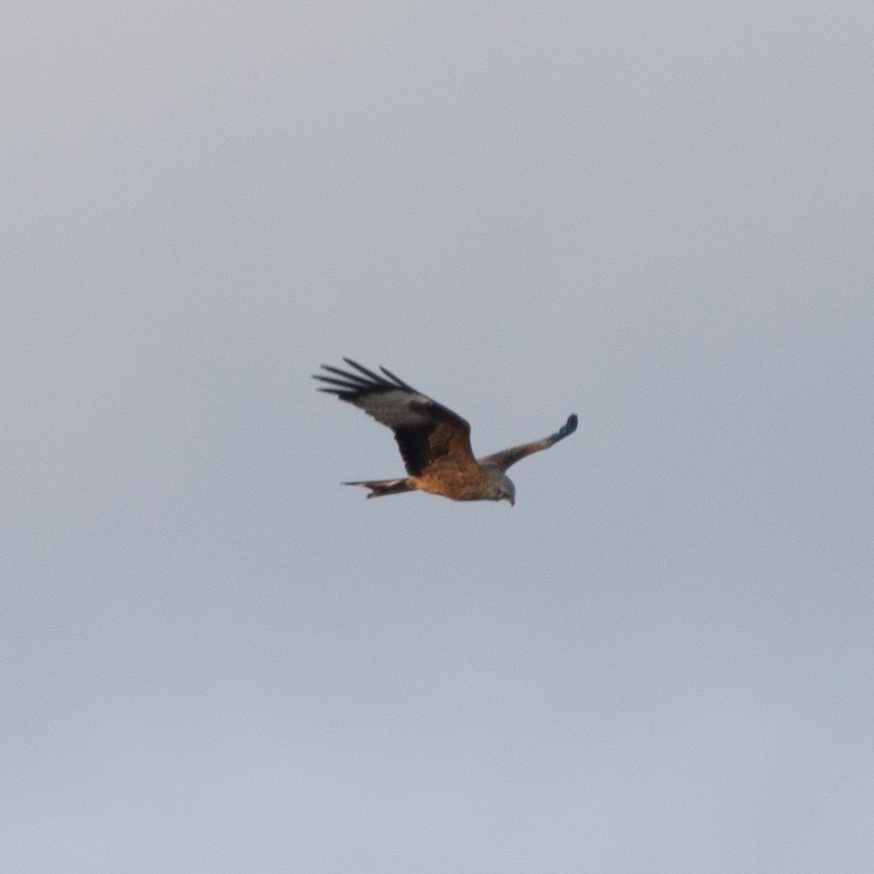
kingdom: Animalia
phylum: Chordata
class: Aves
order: Accipitriformes
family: Accipitridae
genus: Milvus
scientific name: Milvus milvus
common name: Red kite
